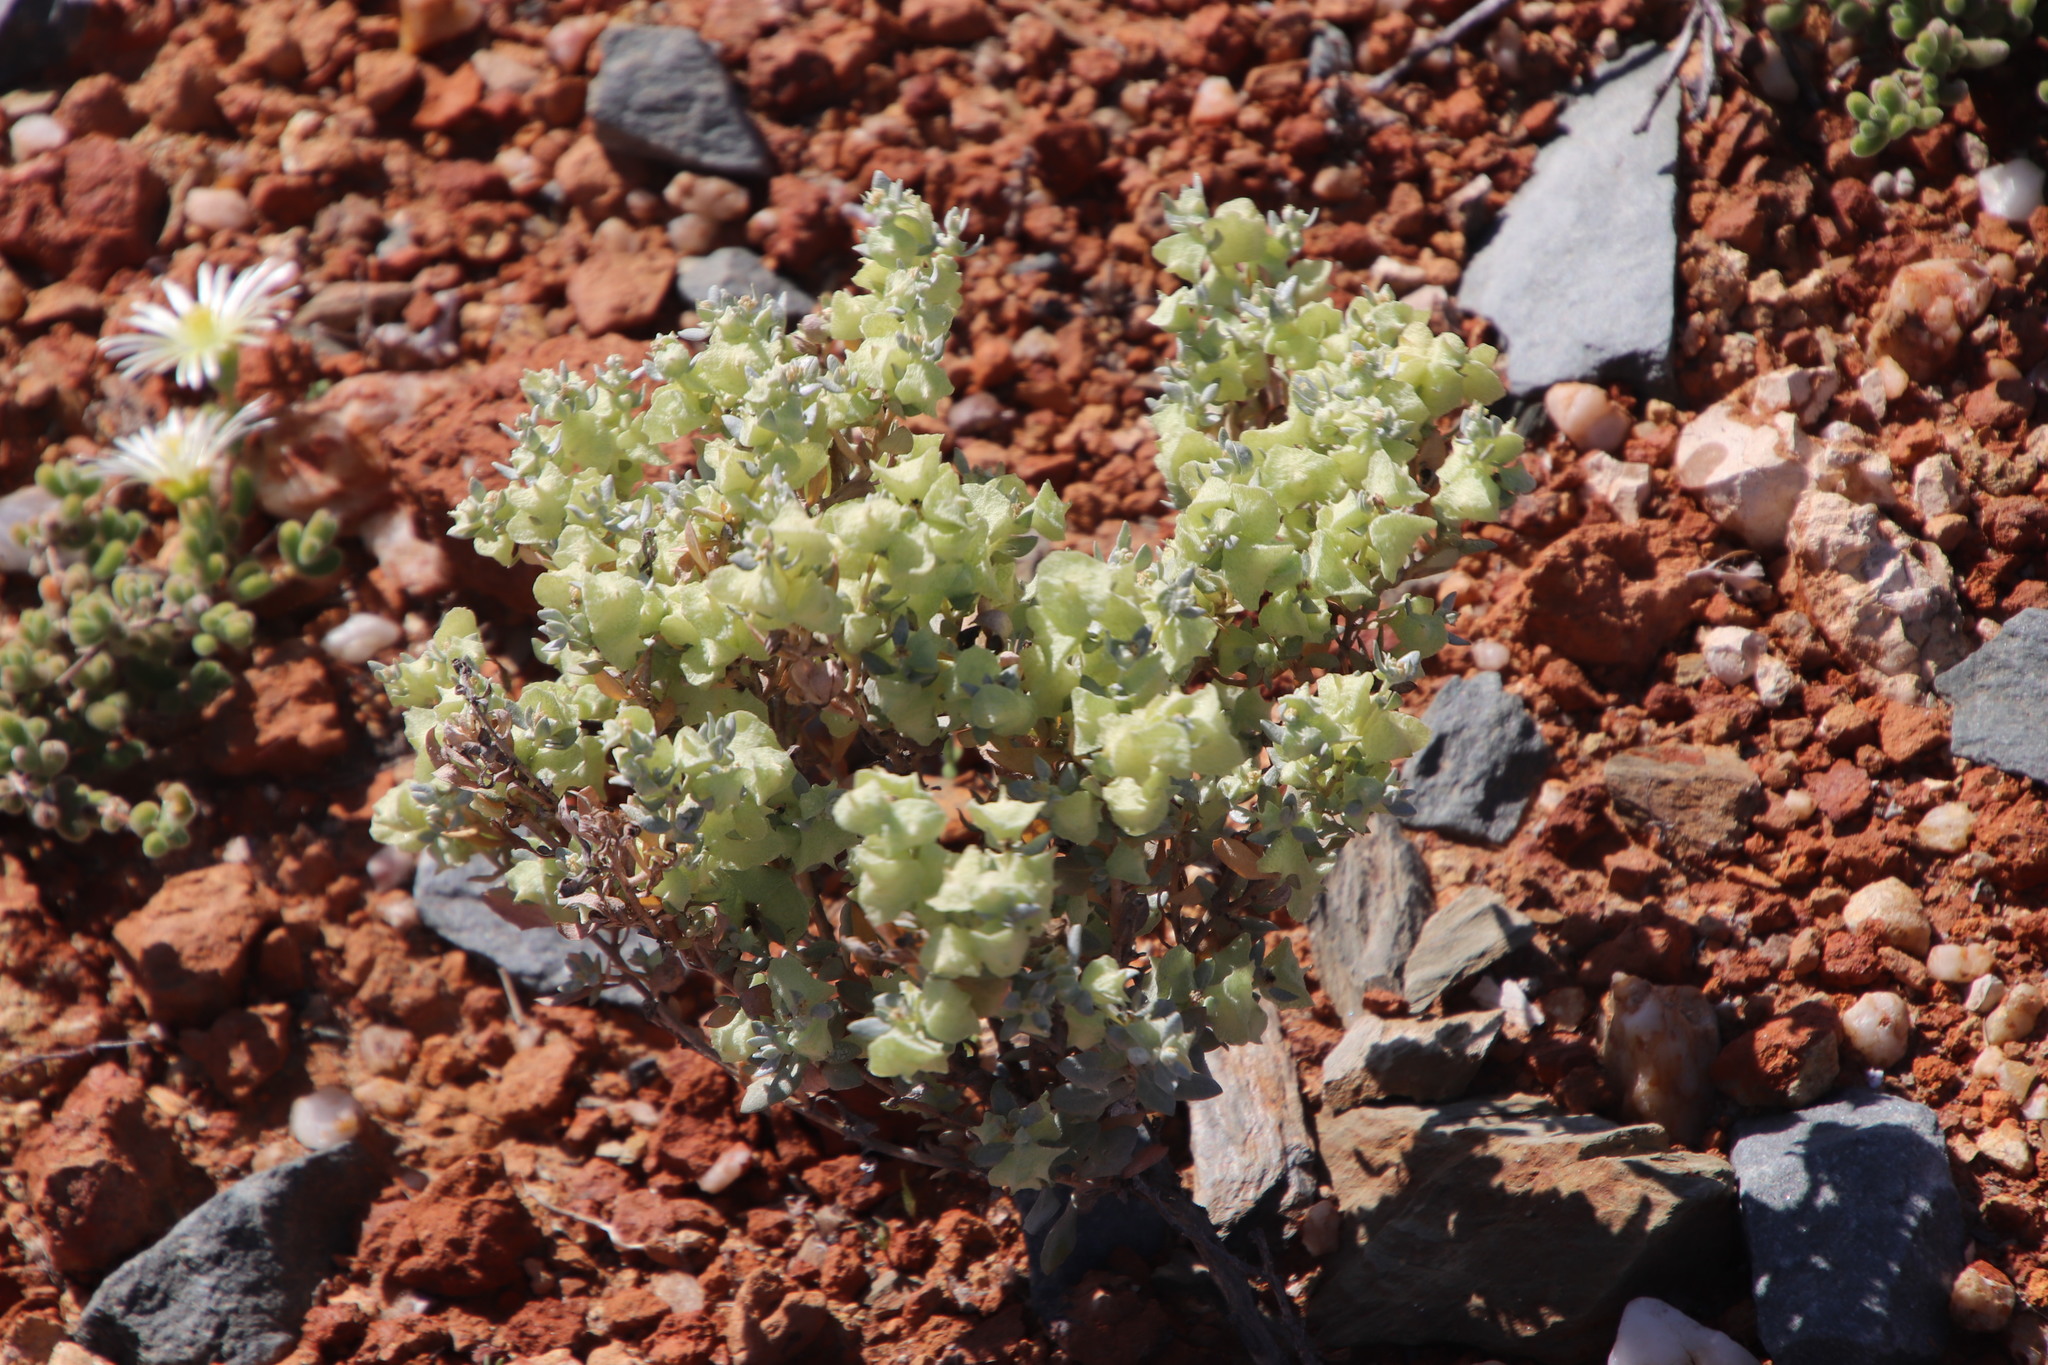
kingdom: Plantae
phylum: Tracheophyta
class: Magnoliopsida
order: Caryophyllales
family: Amaranthaceae
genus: Atriplex
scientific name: Atriplex lindleyi
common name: Lindley's saltbush
